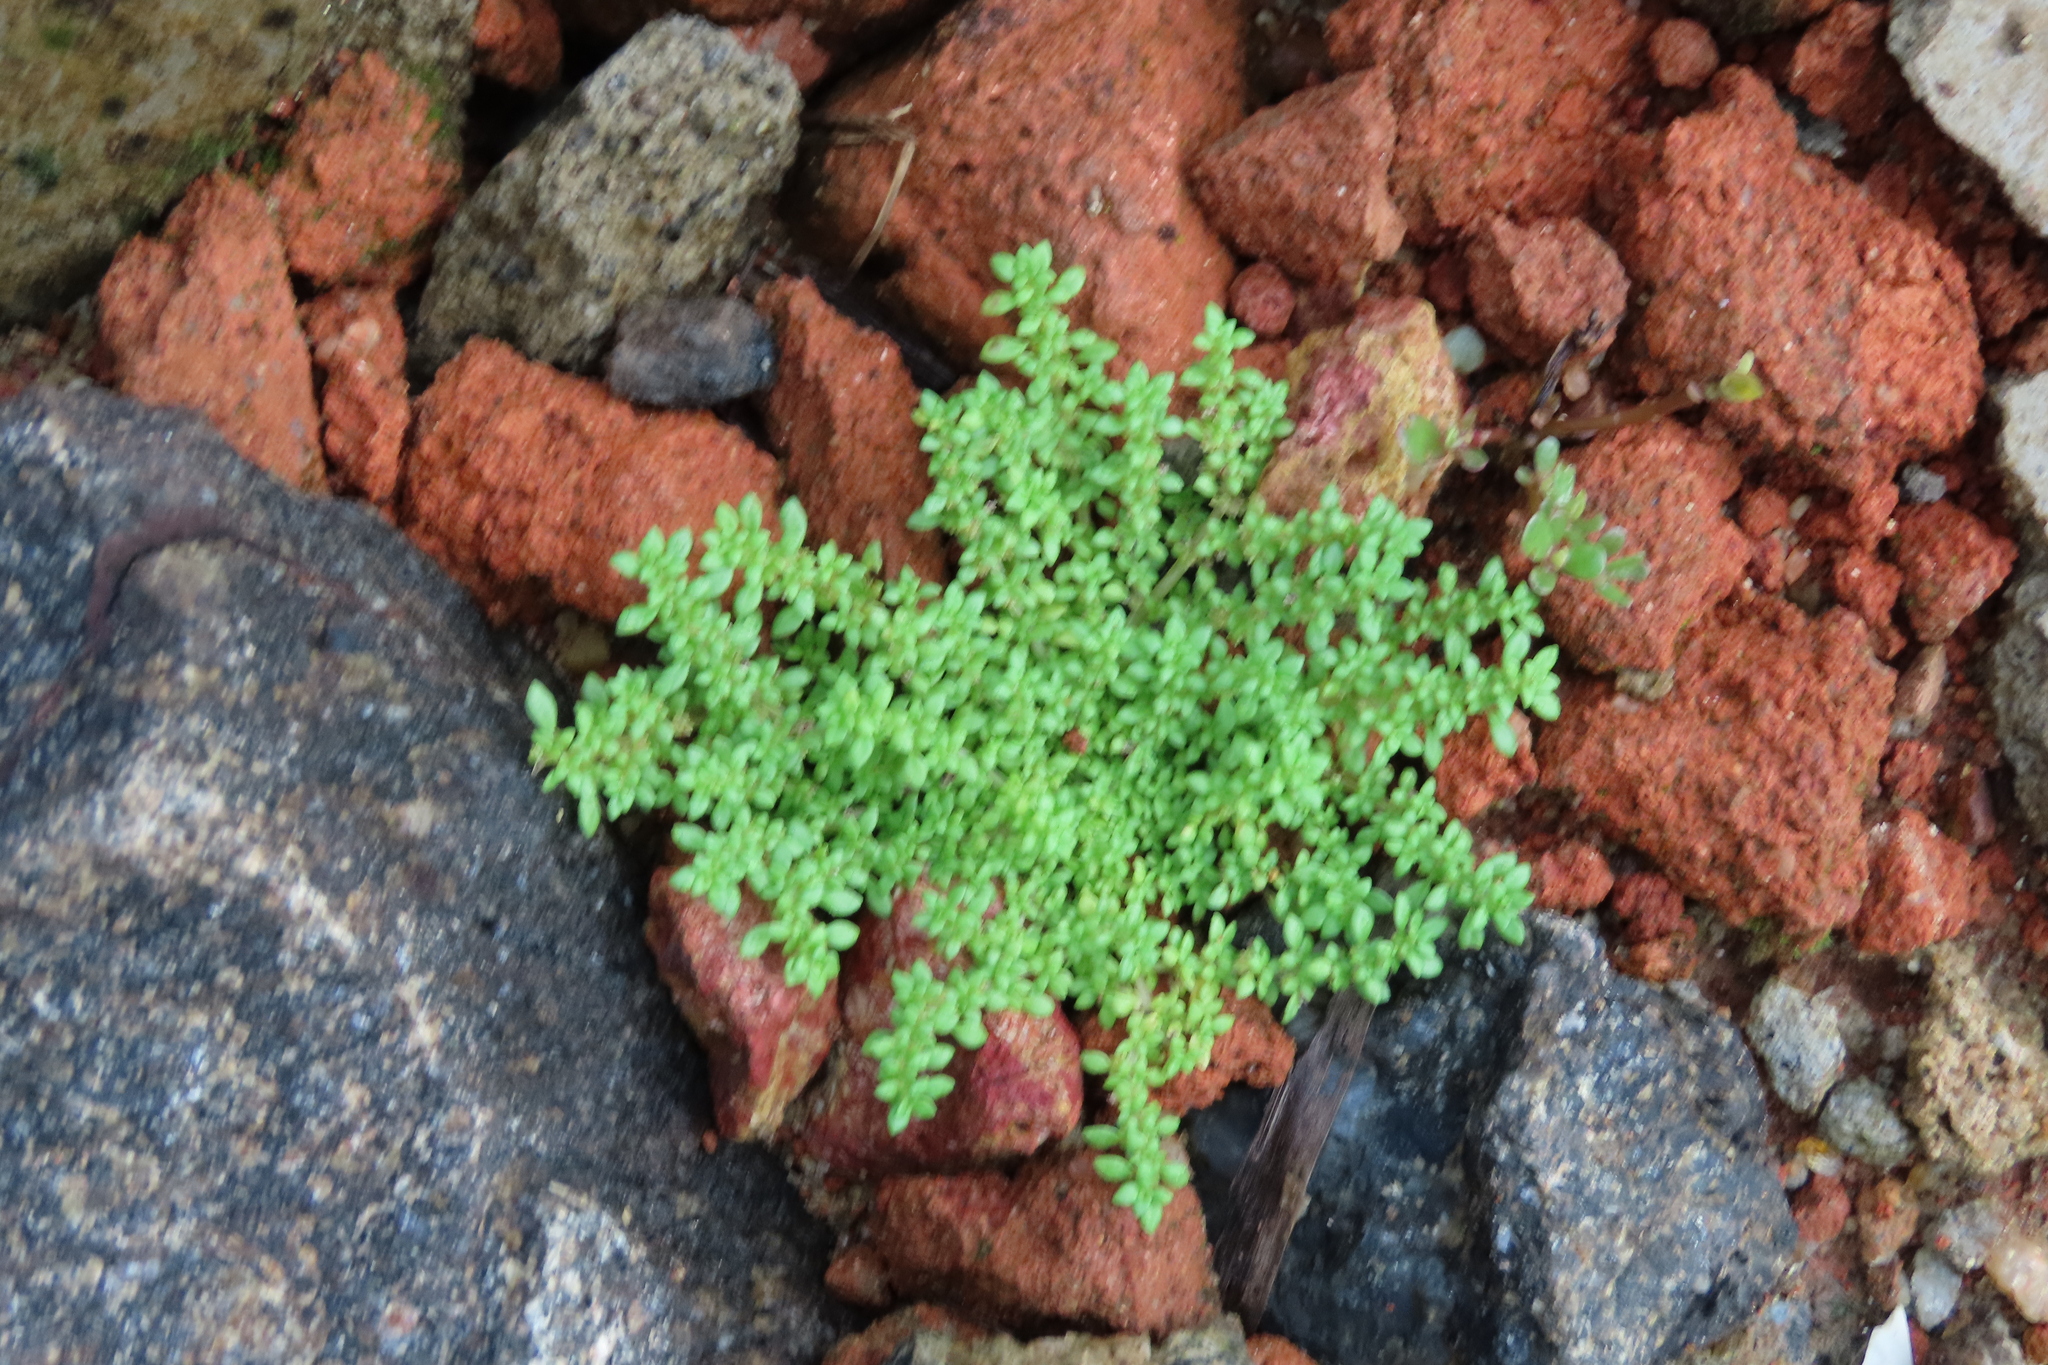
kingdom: Plantae
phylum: Tracheophyta
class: Magnoliopsida
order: Rosales
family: Urticaceae
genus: Pilea
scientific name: Pilea microphylla
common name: Artillery-plant
